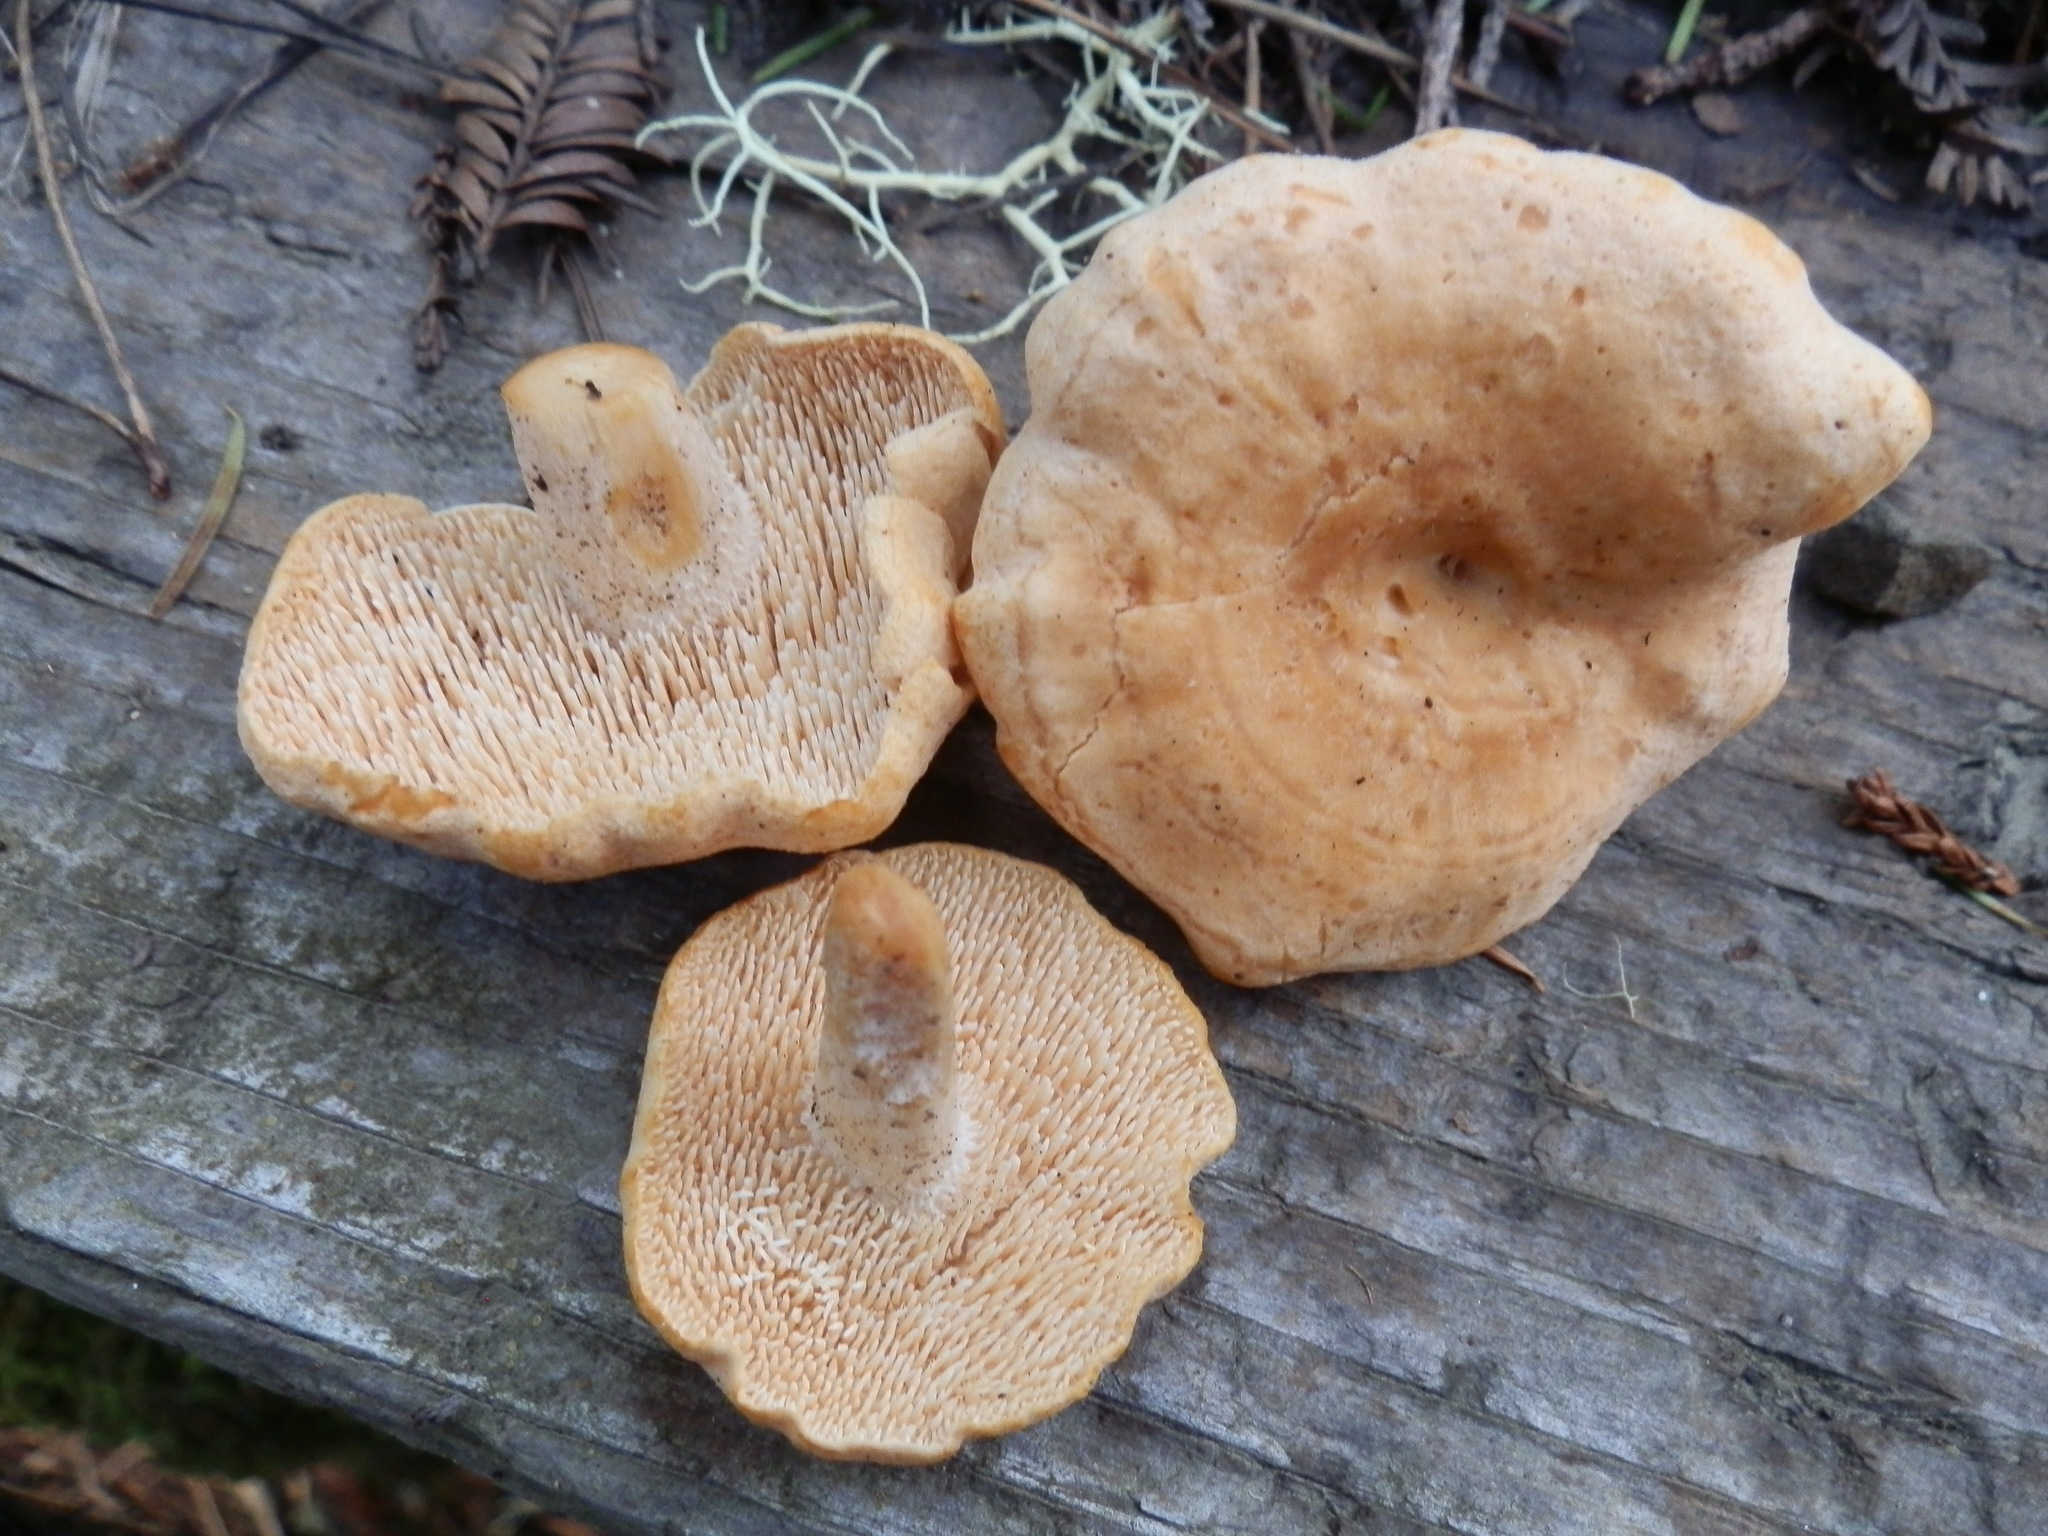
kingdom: Fungi
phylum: Basidiomycota
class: Agaricomycetes
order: Cantharellales
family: Hydnaceae
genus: Hydnum
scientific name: Hydnum oregonense
